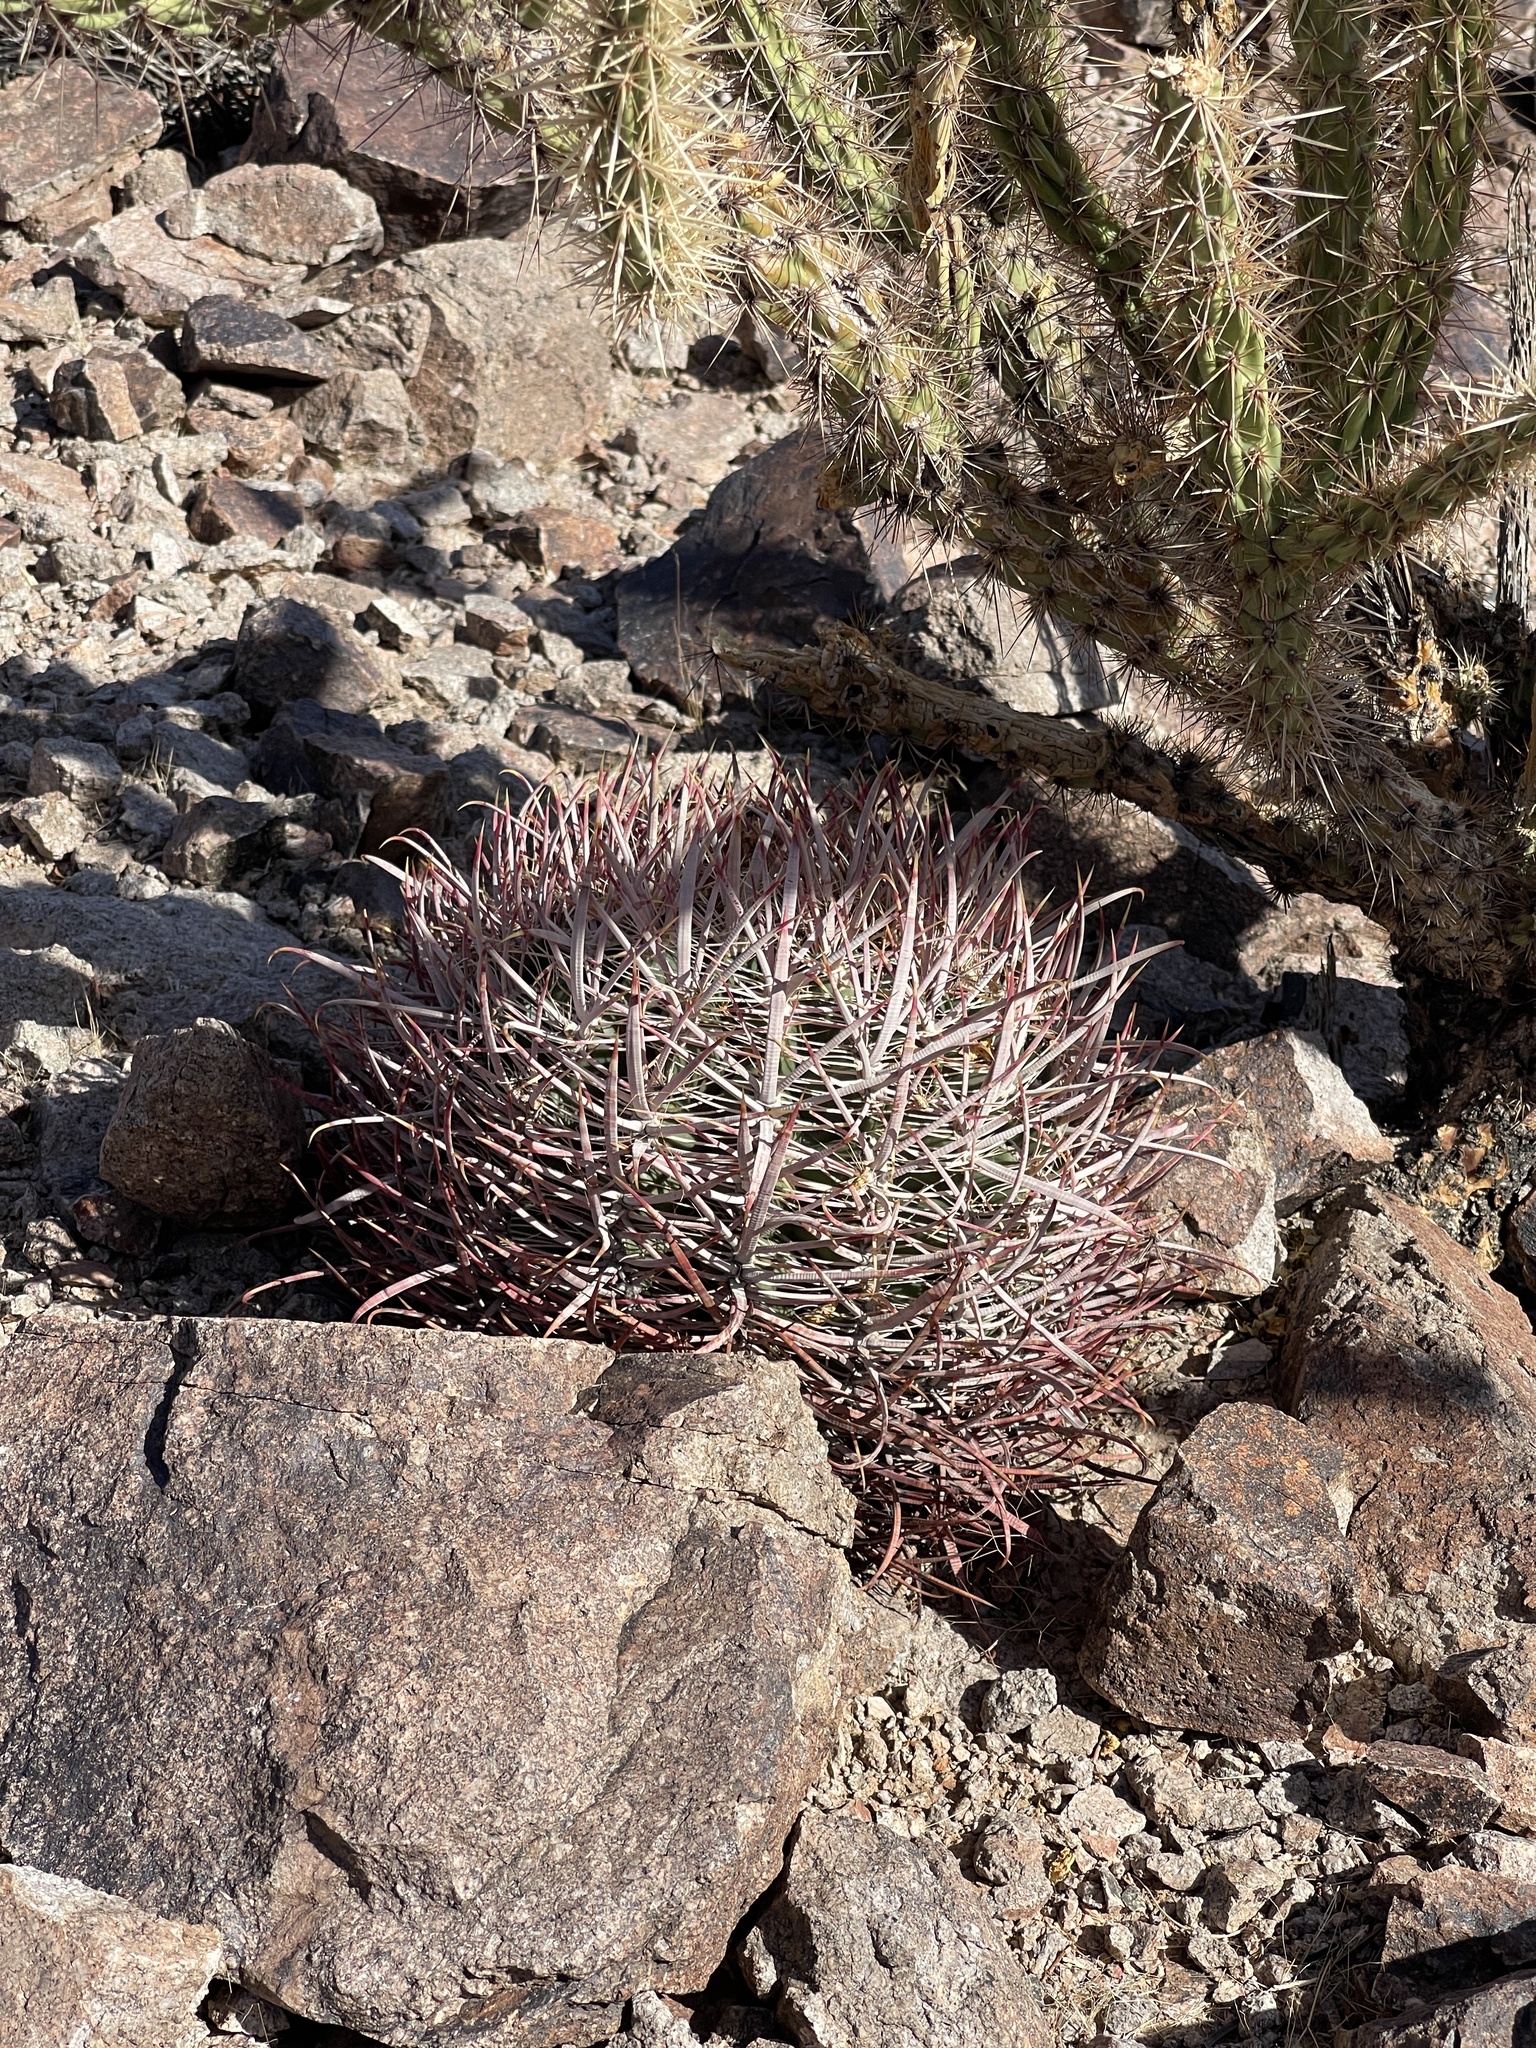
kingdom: Plantae
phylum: Tracheophyta
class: Magnoliopsida
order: Caryophyllales
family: Cactaceae
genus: Ferocactus
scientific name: Ferocactus cylindraceus
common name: California barrel cactus
